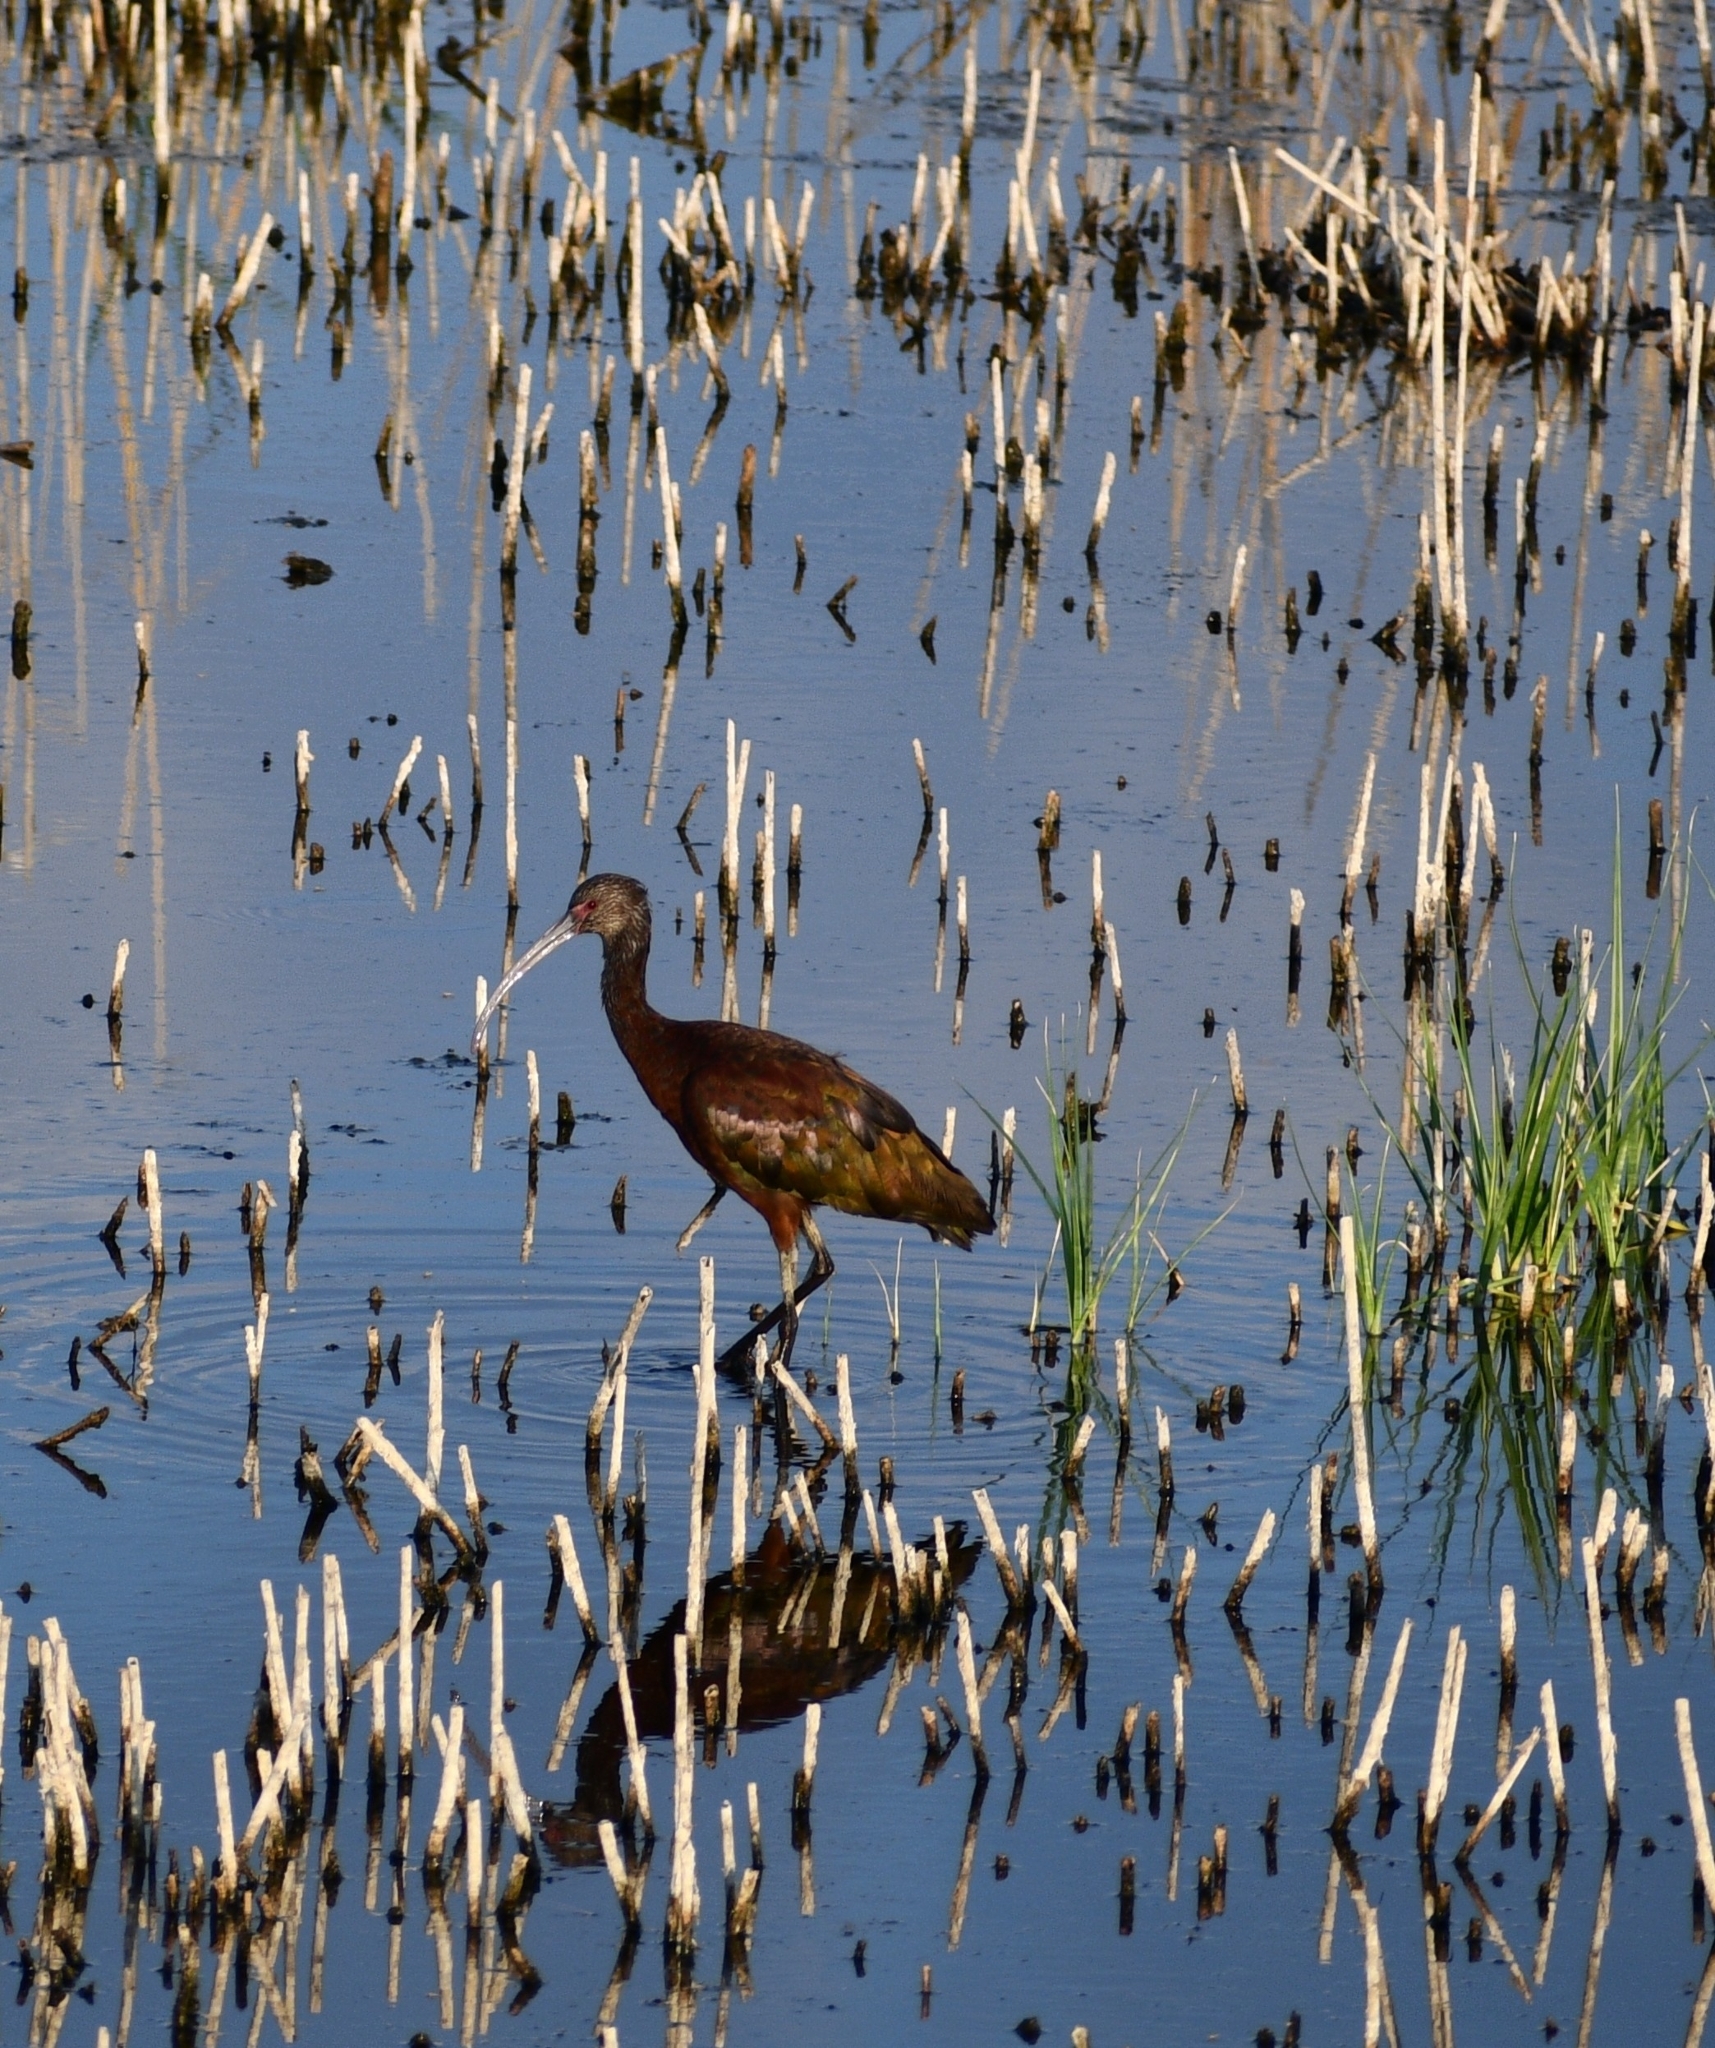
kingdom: Animalia
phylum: Chordata
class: Aves
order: Pelecaniformes
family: Threskiornithidae
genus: Plegadis
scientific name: Plegadis chihi
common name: White-faced ibis
